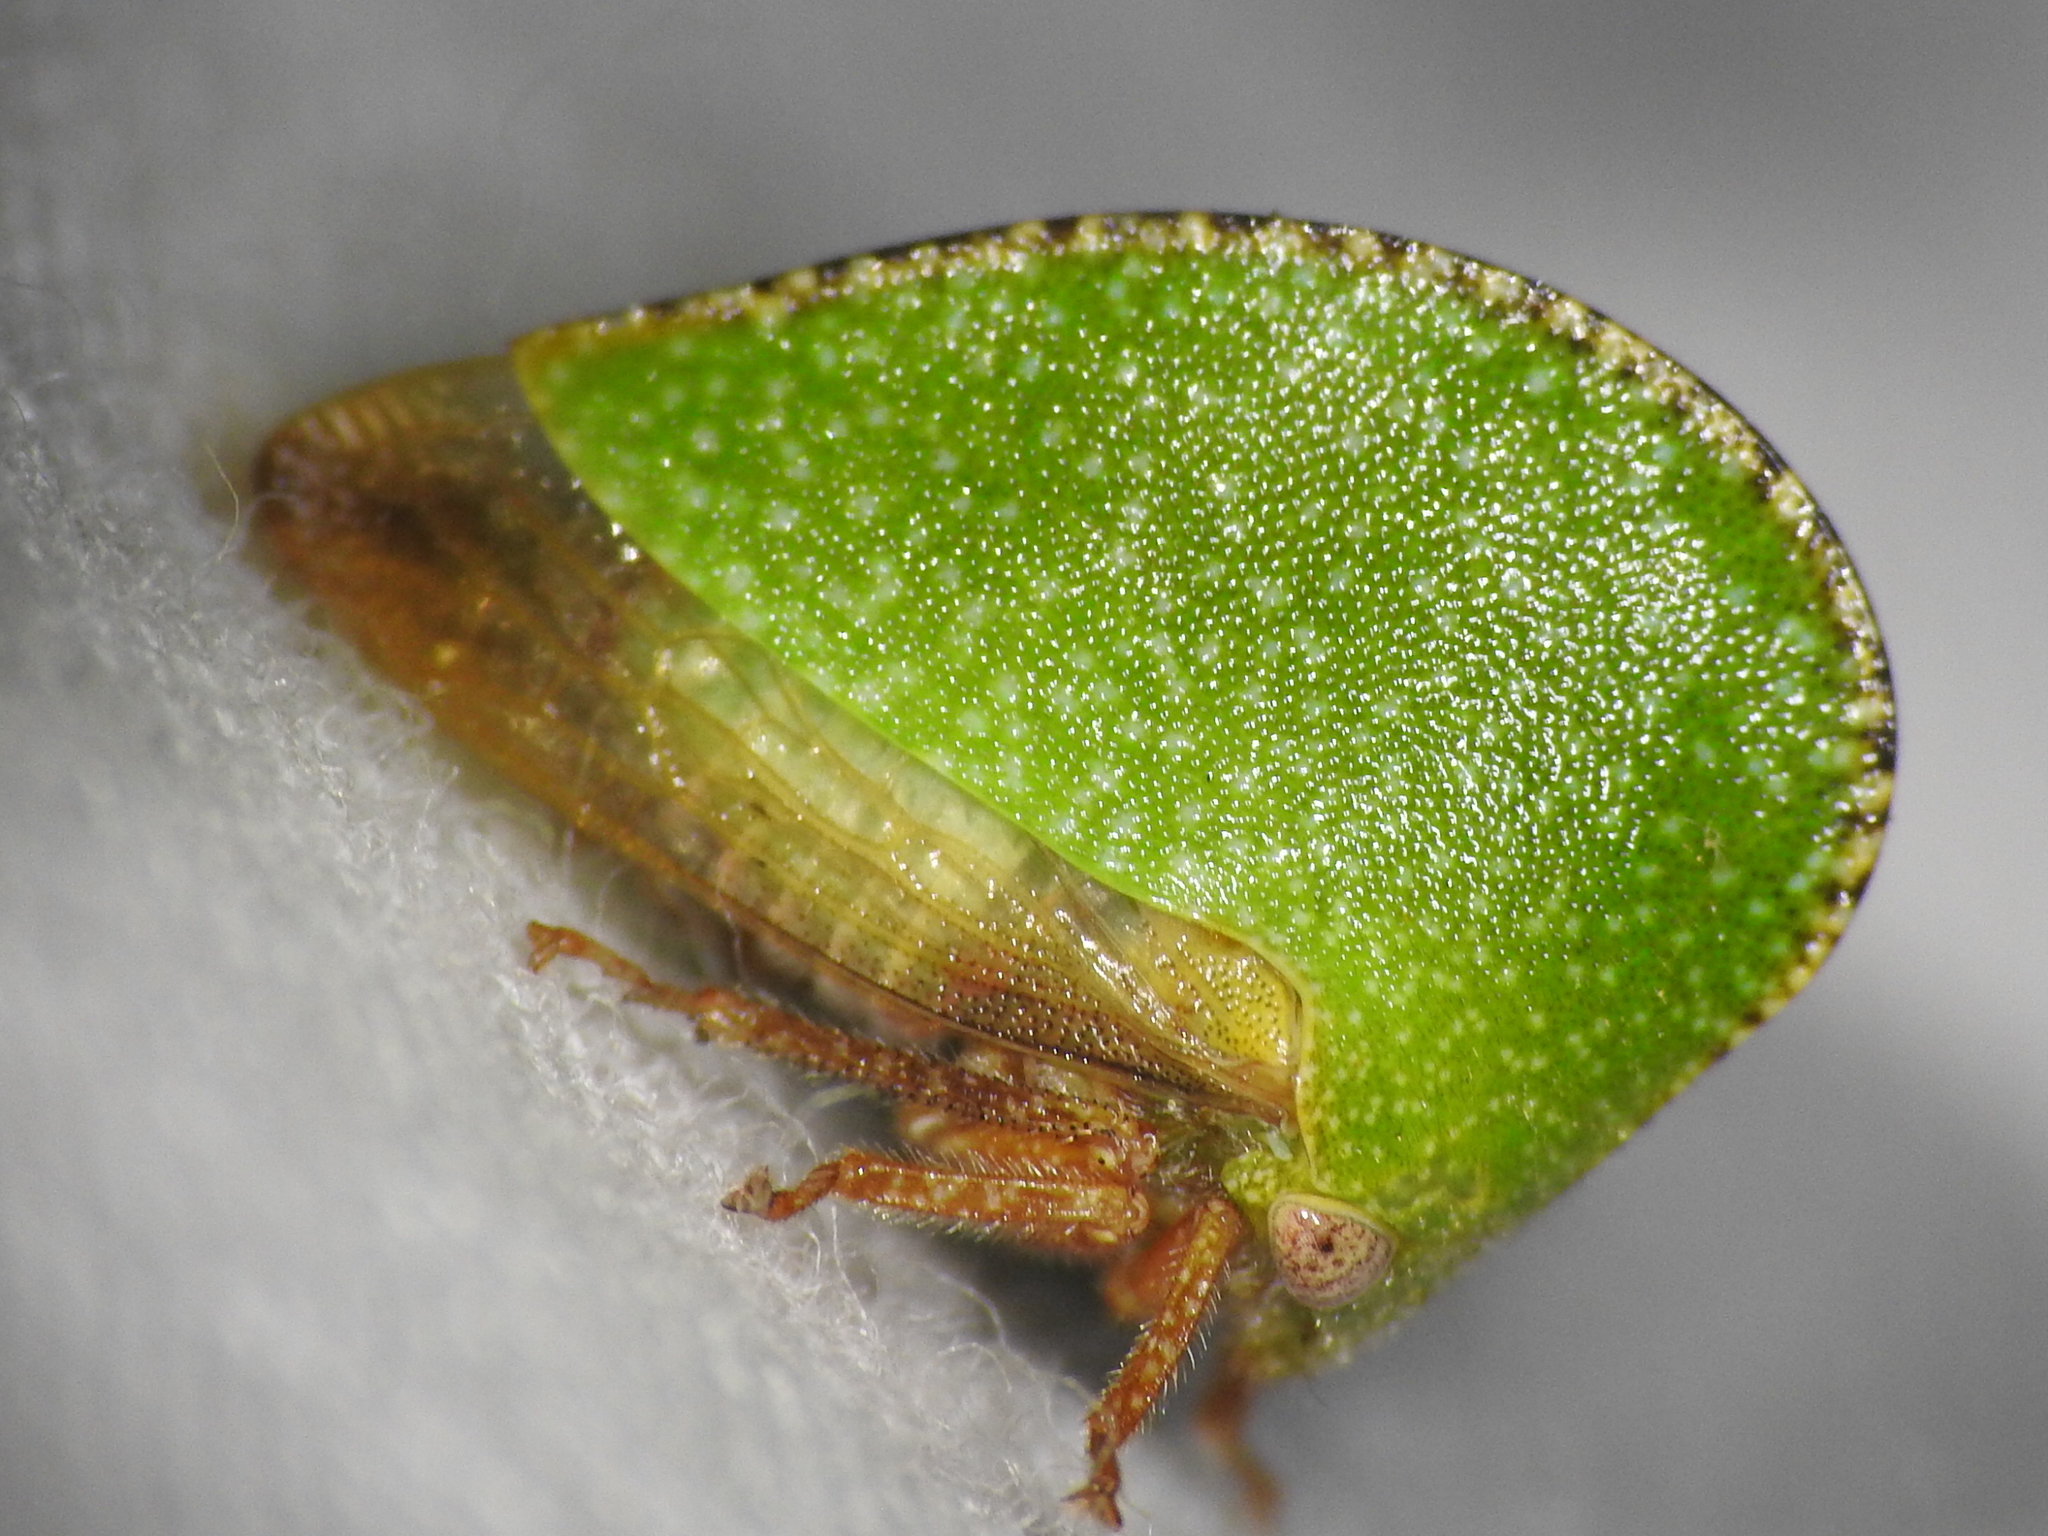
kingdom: Animalia
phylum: Arthropoda
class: Insecta
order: Hemiptera
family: Membracidae
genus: Archasia
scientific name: Archasia auriculata
